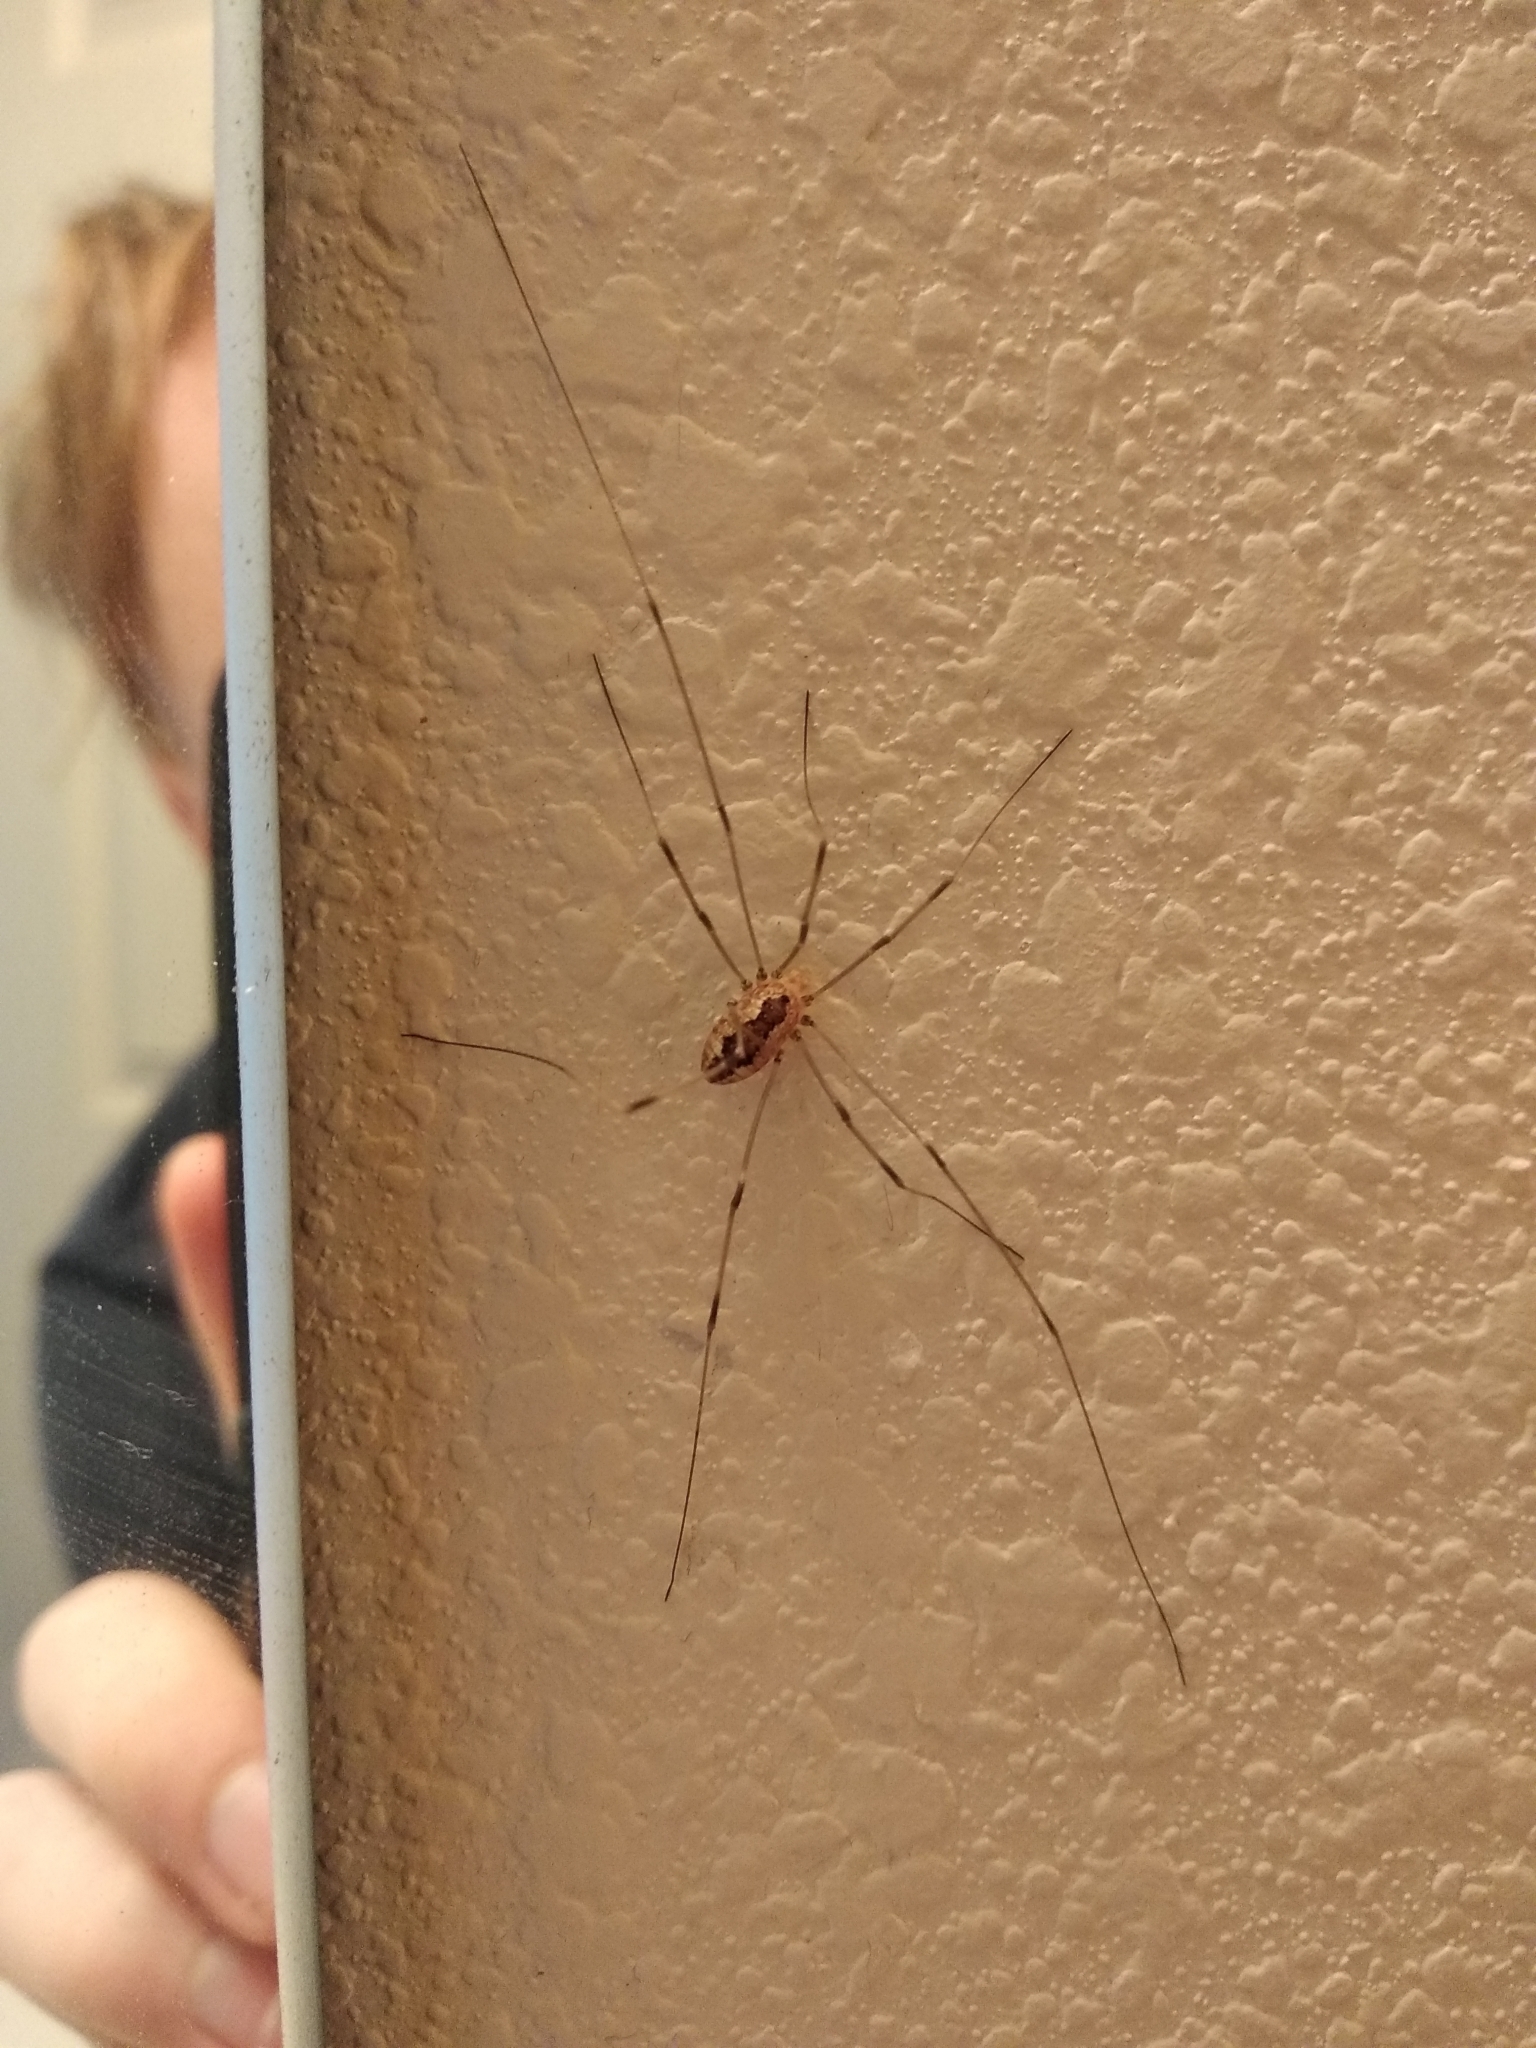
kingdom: Animalia
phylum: Arthropoda
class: Arachnida
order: Opiliones
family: Sclerosomatidae
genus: Leiobunum
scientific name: Leiobunum vittatum
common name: Eastern harvestman
